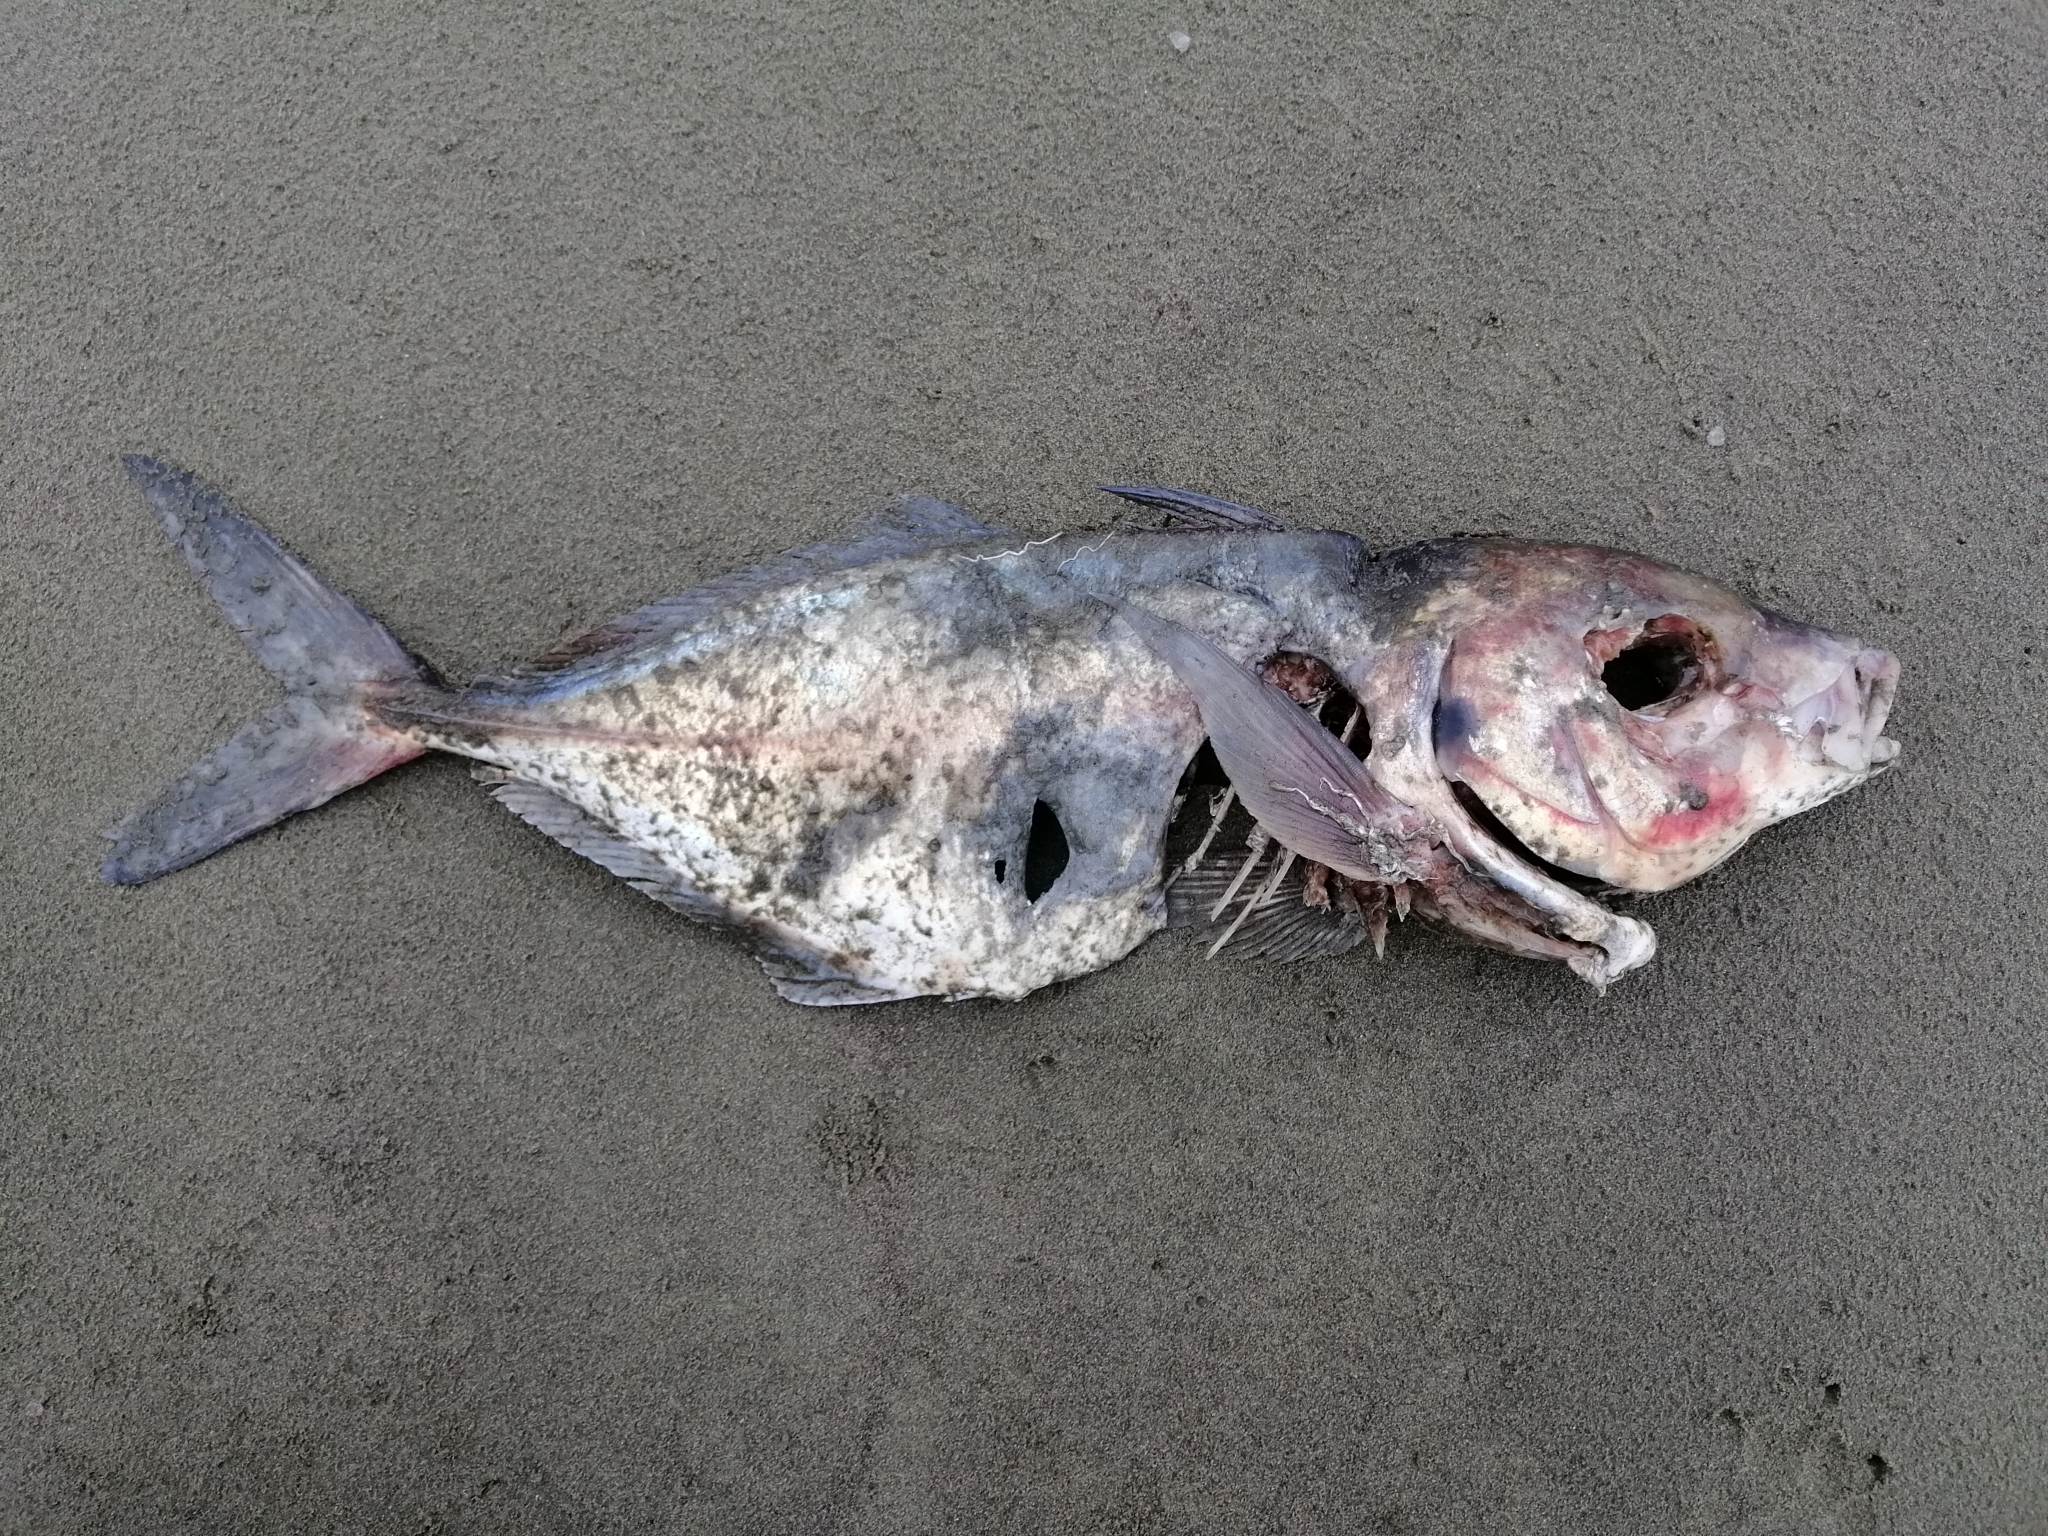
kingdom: Animalia
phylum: Chordata
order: Perciformes
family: Carangidae
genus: Pseudocaranx
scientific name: Pseudocaranx dentex
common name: White trevally
